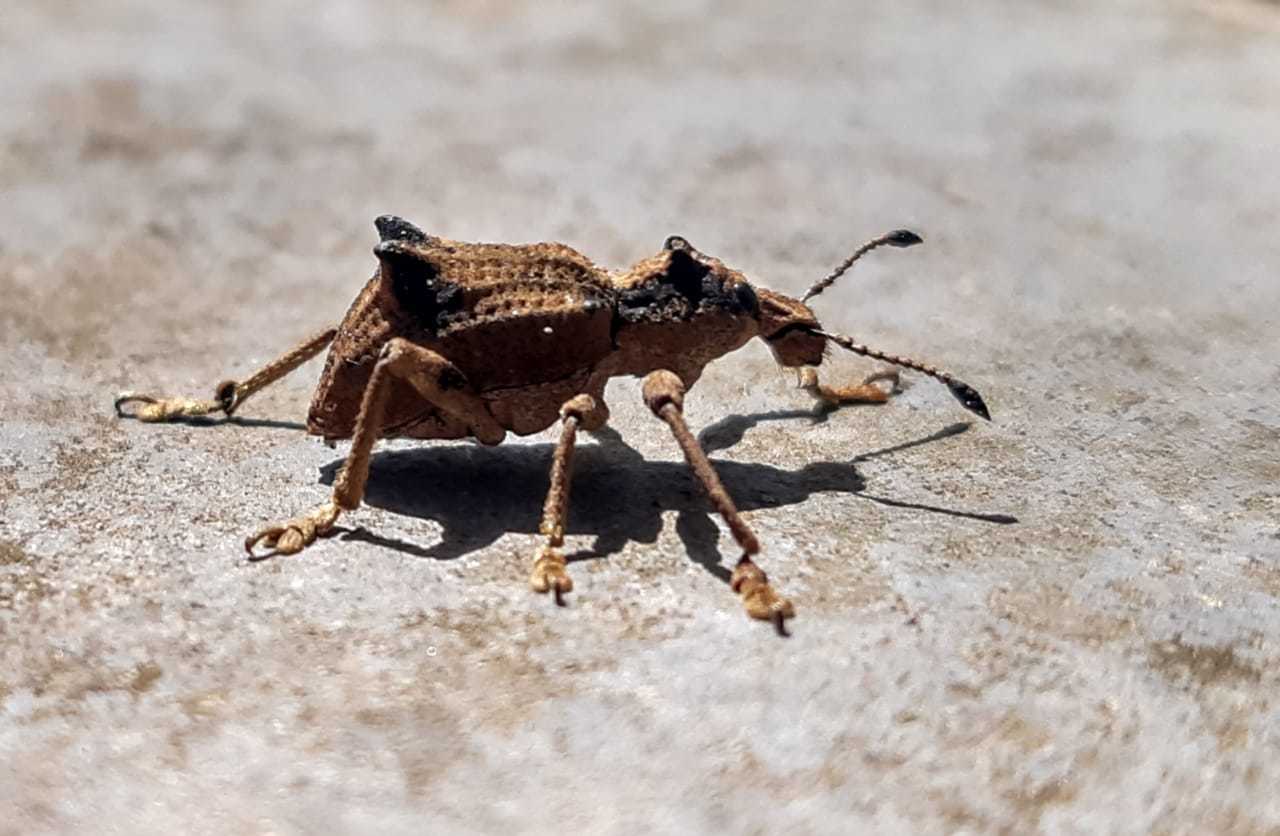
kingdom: Animalia
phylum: Arthropoda
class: Insecta
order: Coleoptera
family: Curculionidae
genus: Rhigus
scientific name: Rhigus tribuloides
